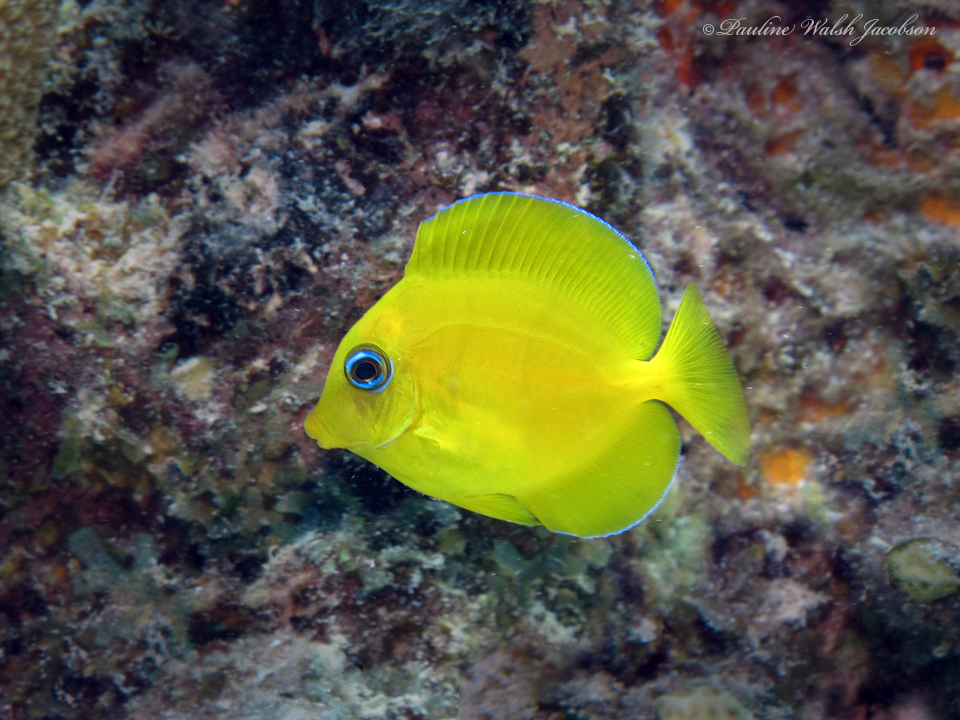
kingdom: Animalia
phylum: Chordata
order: Perciformes
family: Acanthuridae
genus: Acanthurus
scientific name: Acanthurus coeruleus
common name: Blue tang
